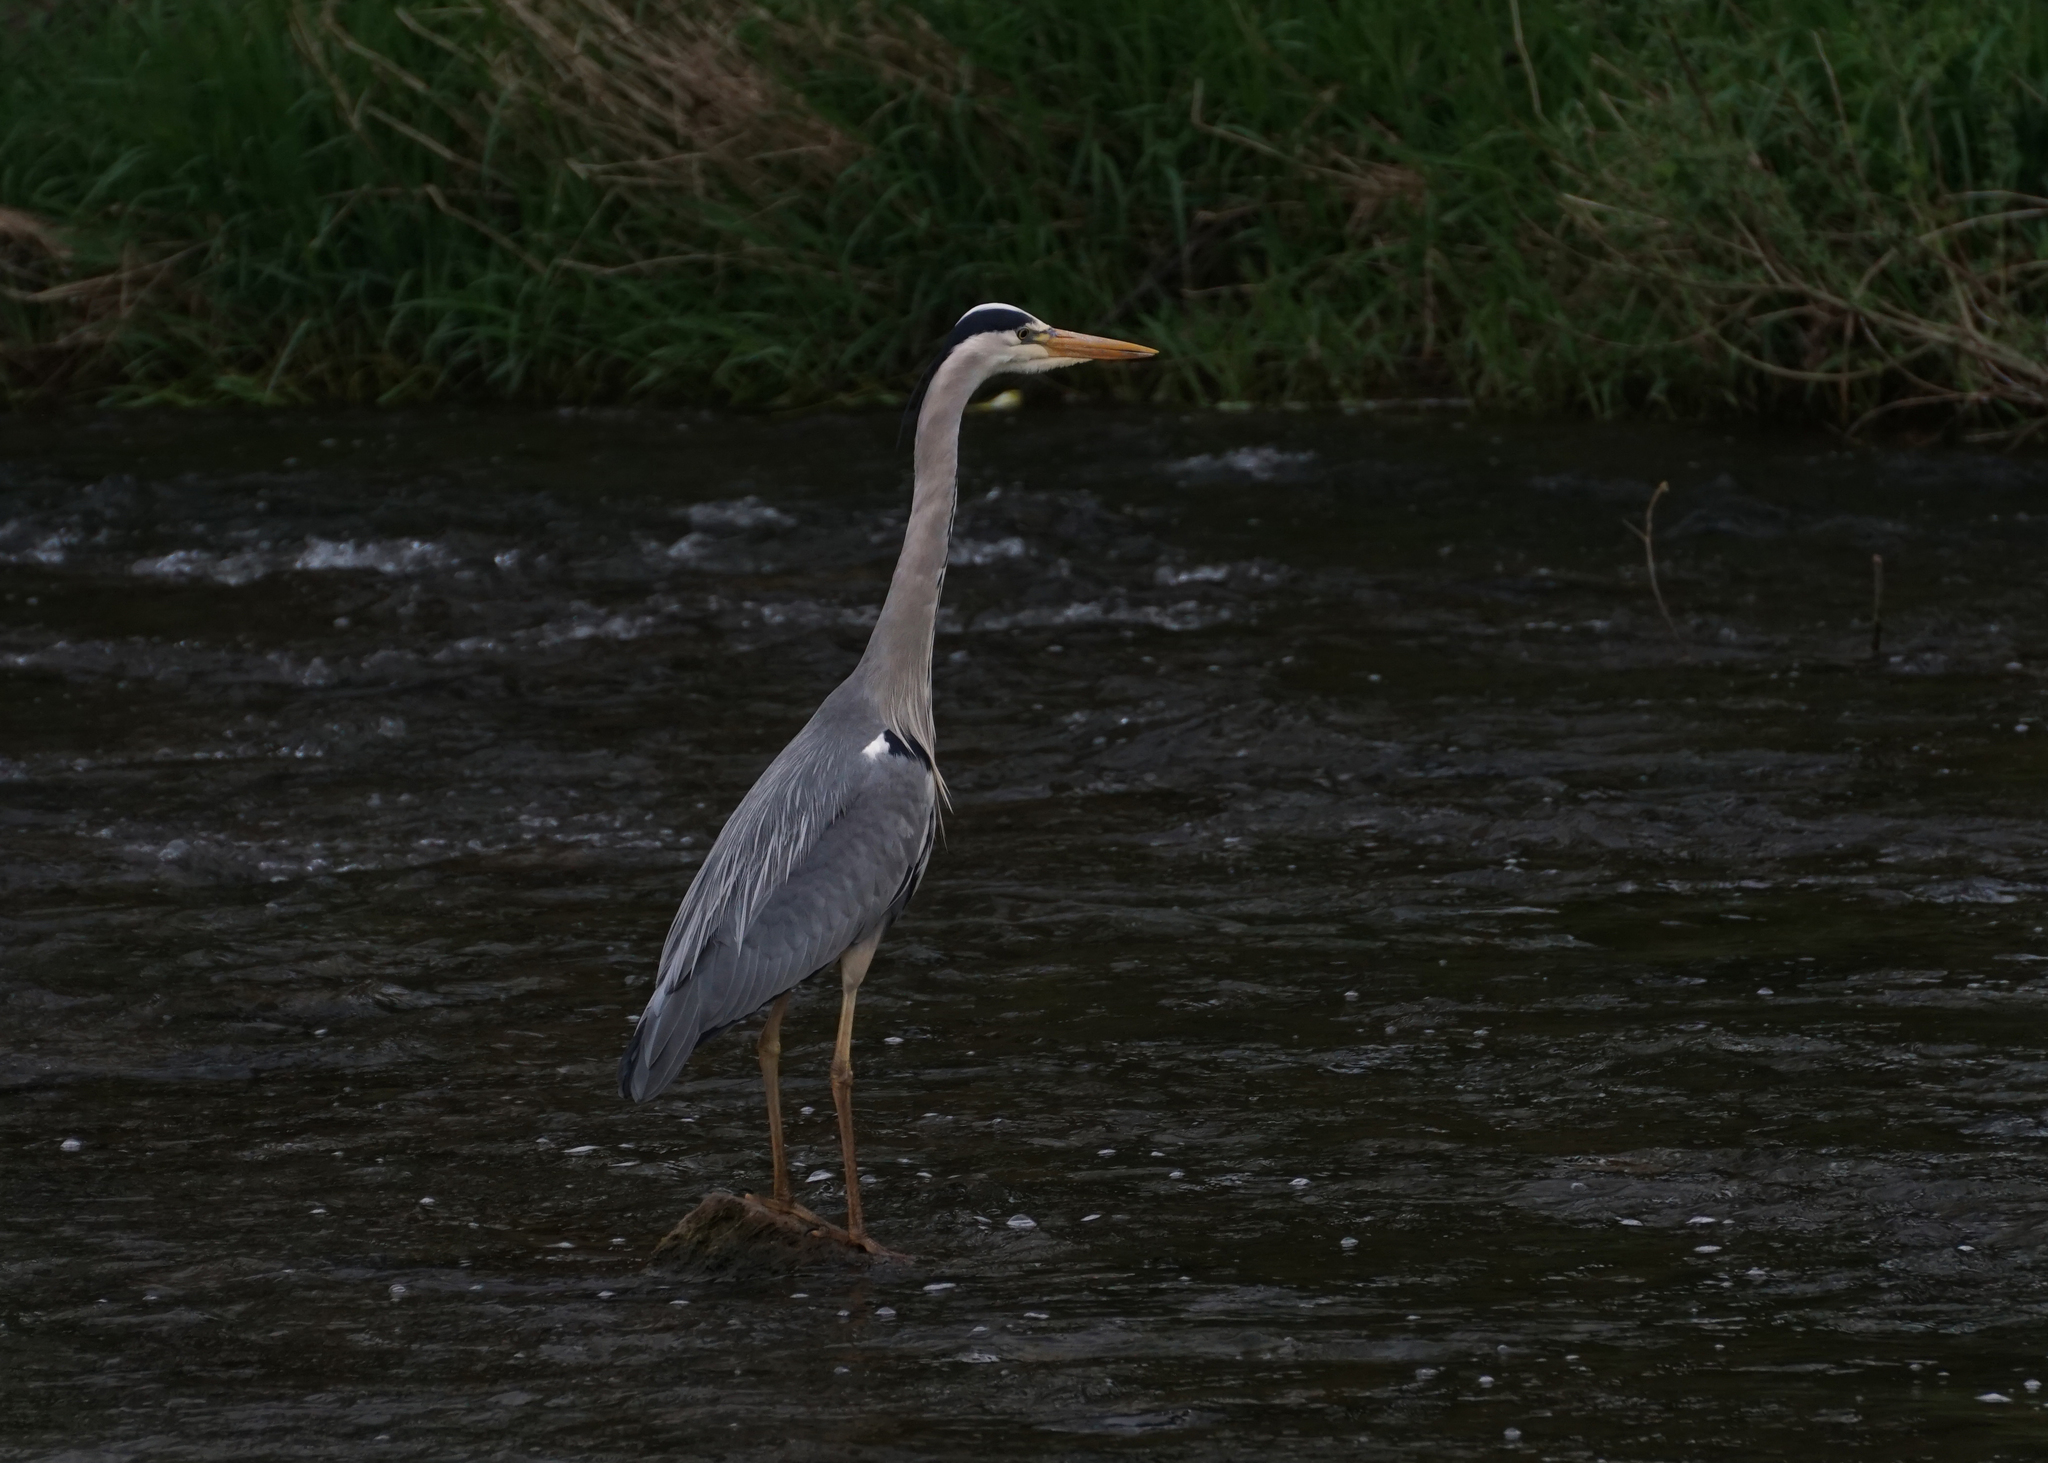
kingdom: Animalia
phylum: Chordata
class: Aves
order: Pelecaniformes
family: Ardeidae
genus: Ardea
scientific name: Ardea cinerea
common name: Grey heron
